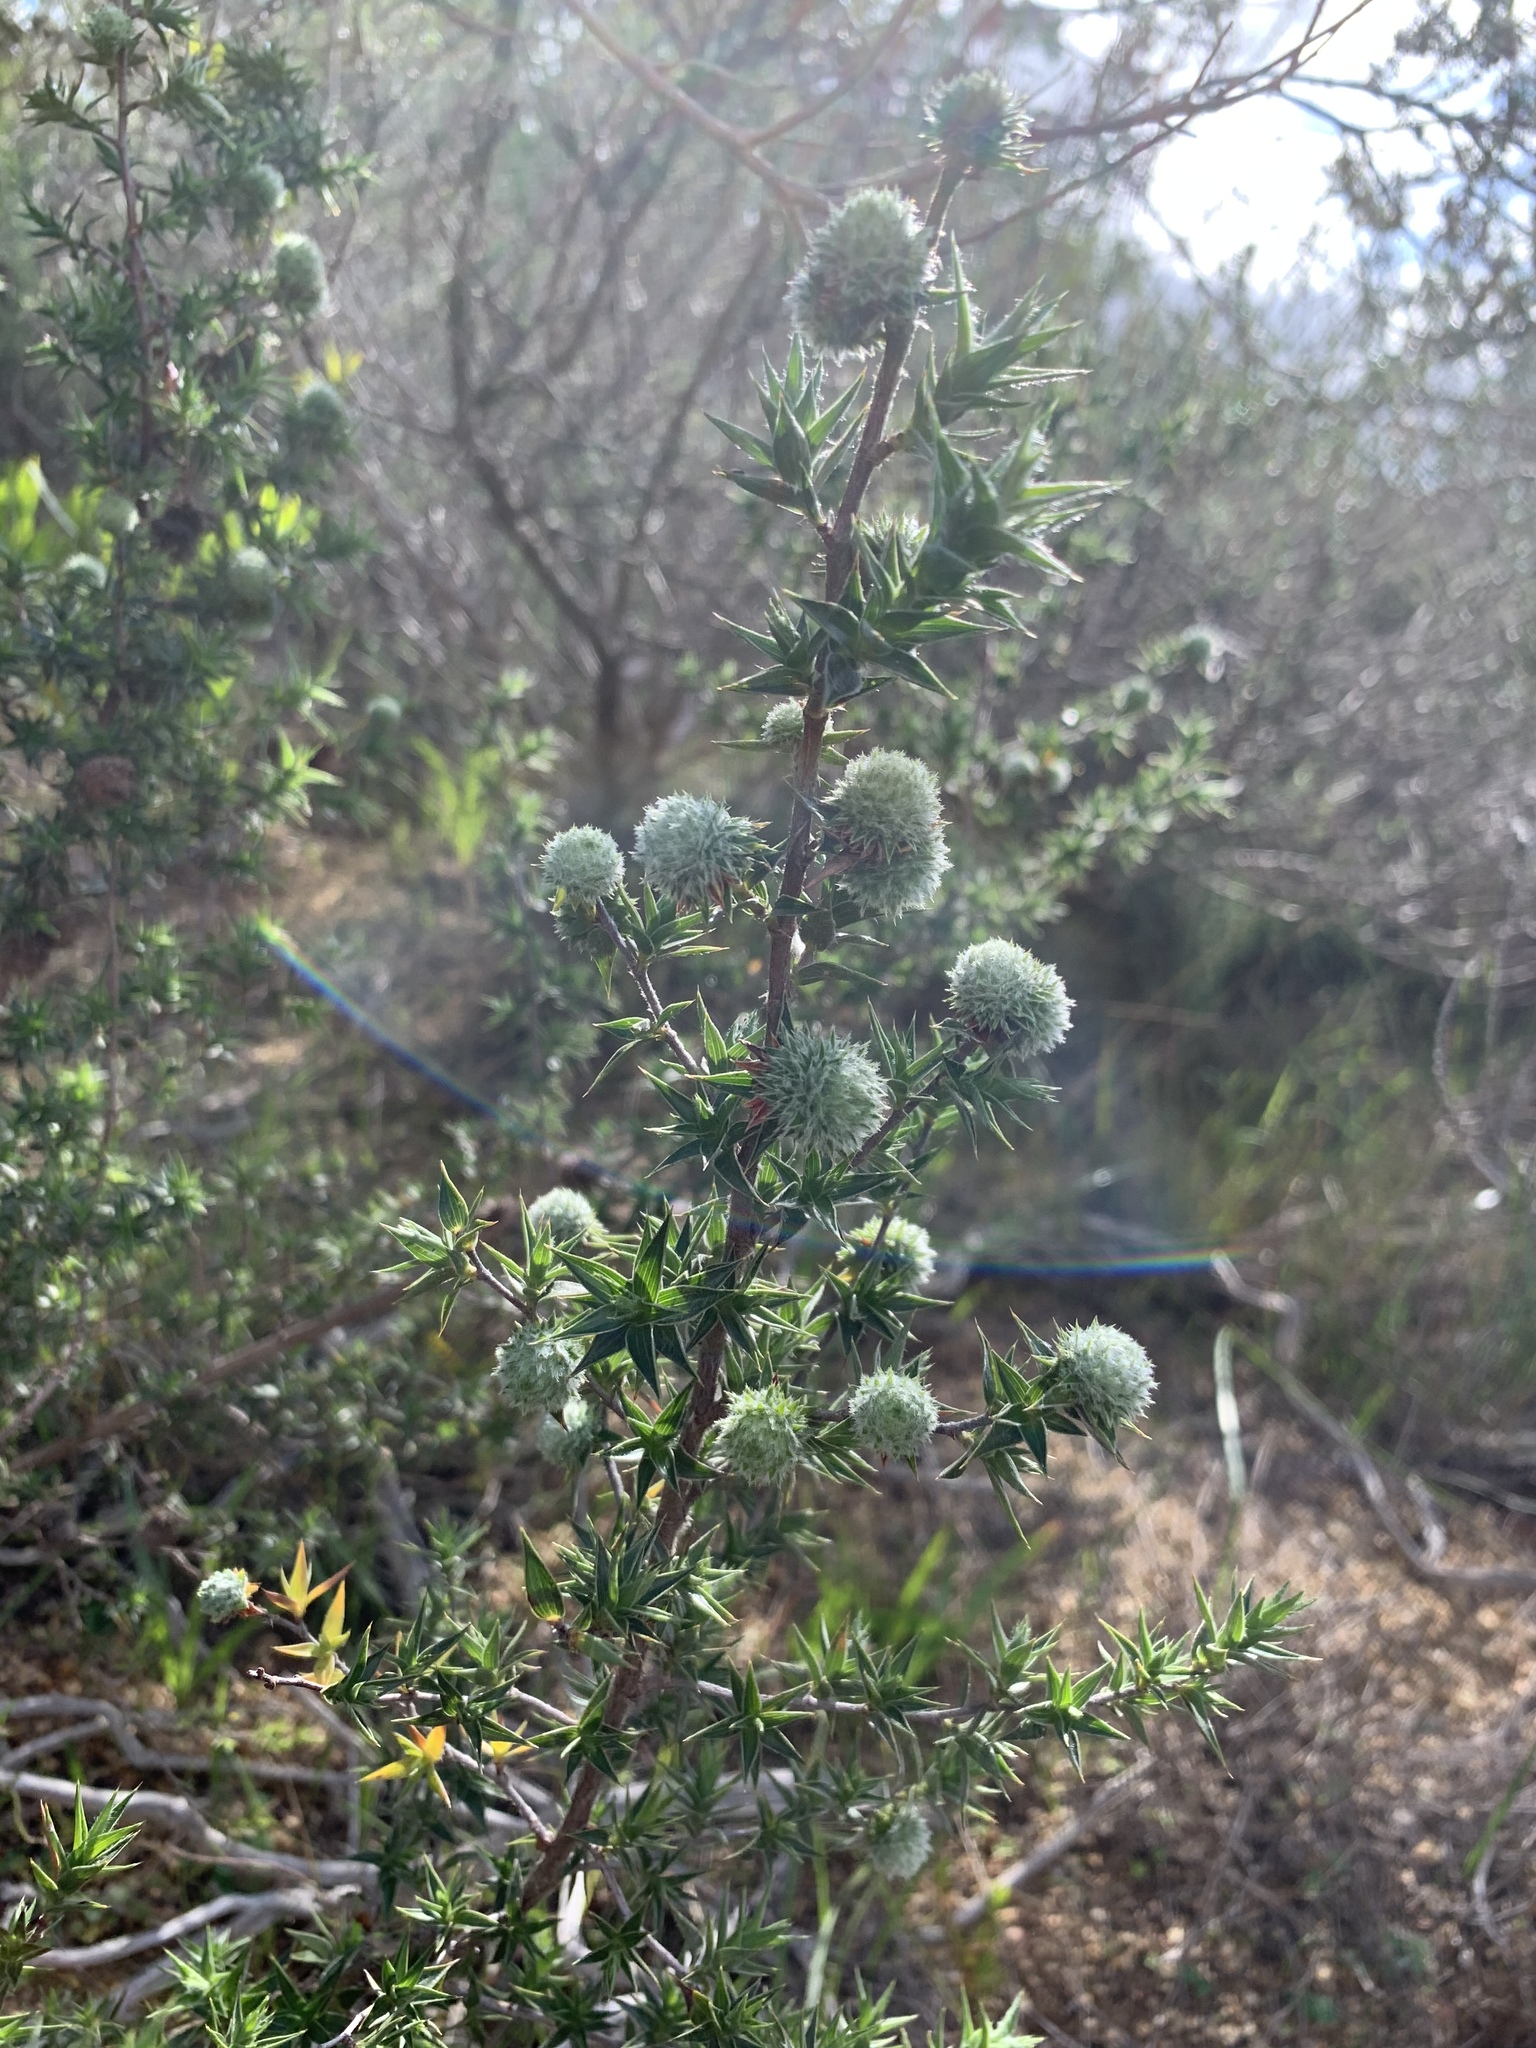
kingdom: Plantae
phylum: Tracheophyta
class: Magnoliopsida
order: Rosales
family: Rosaceae
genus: Cliffortia
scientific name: Cliffortia ruscifolia
